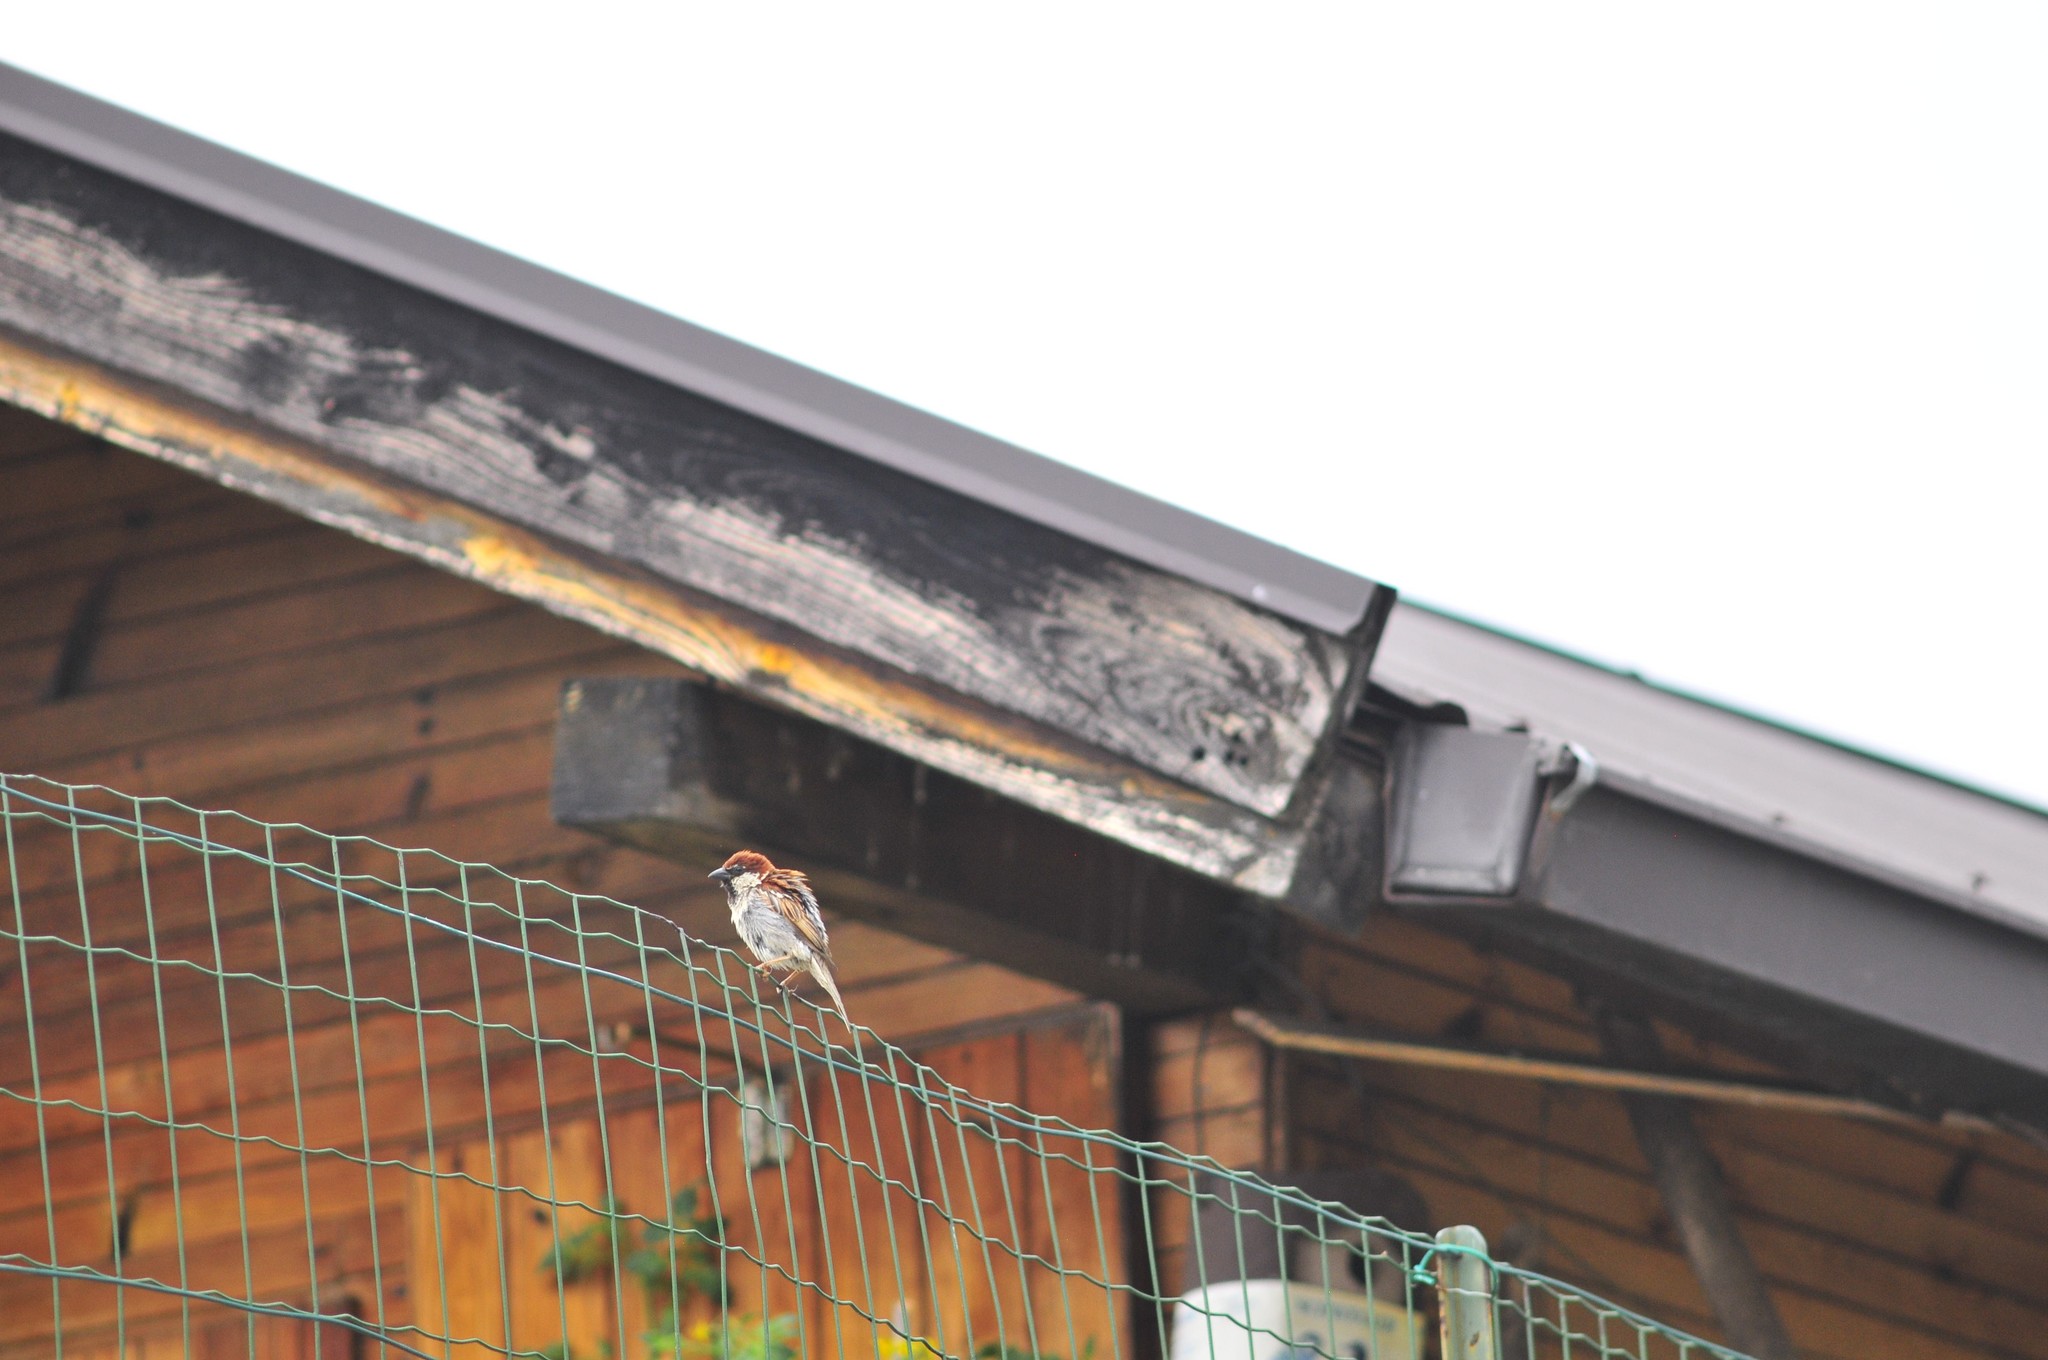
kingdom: Animalia
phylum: Chordata
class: Aves
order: Passeriformes
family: Passeridae
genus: Passer
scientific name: Passer italiae
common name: Italian sparrow
